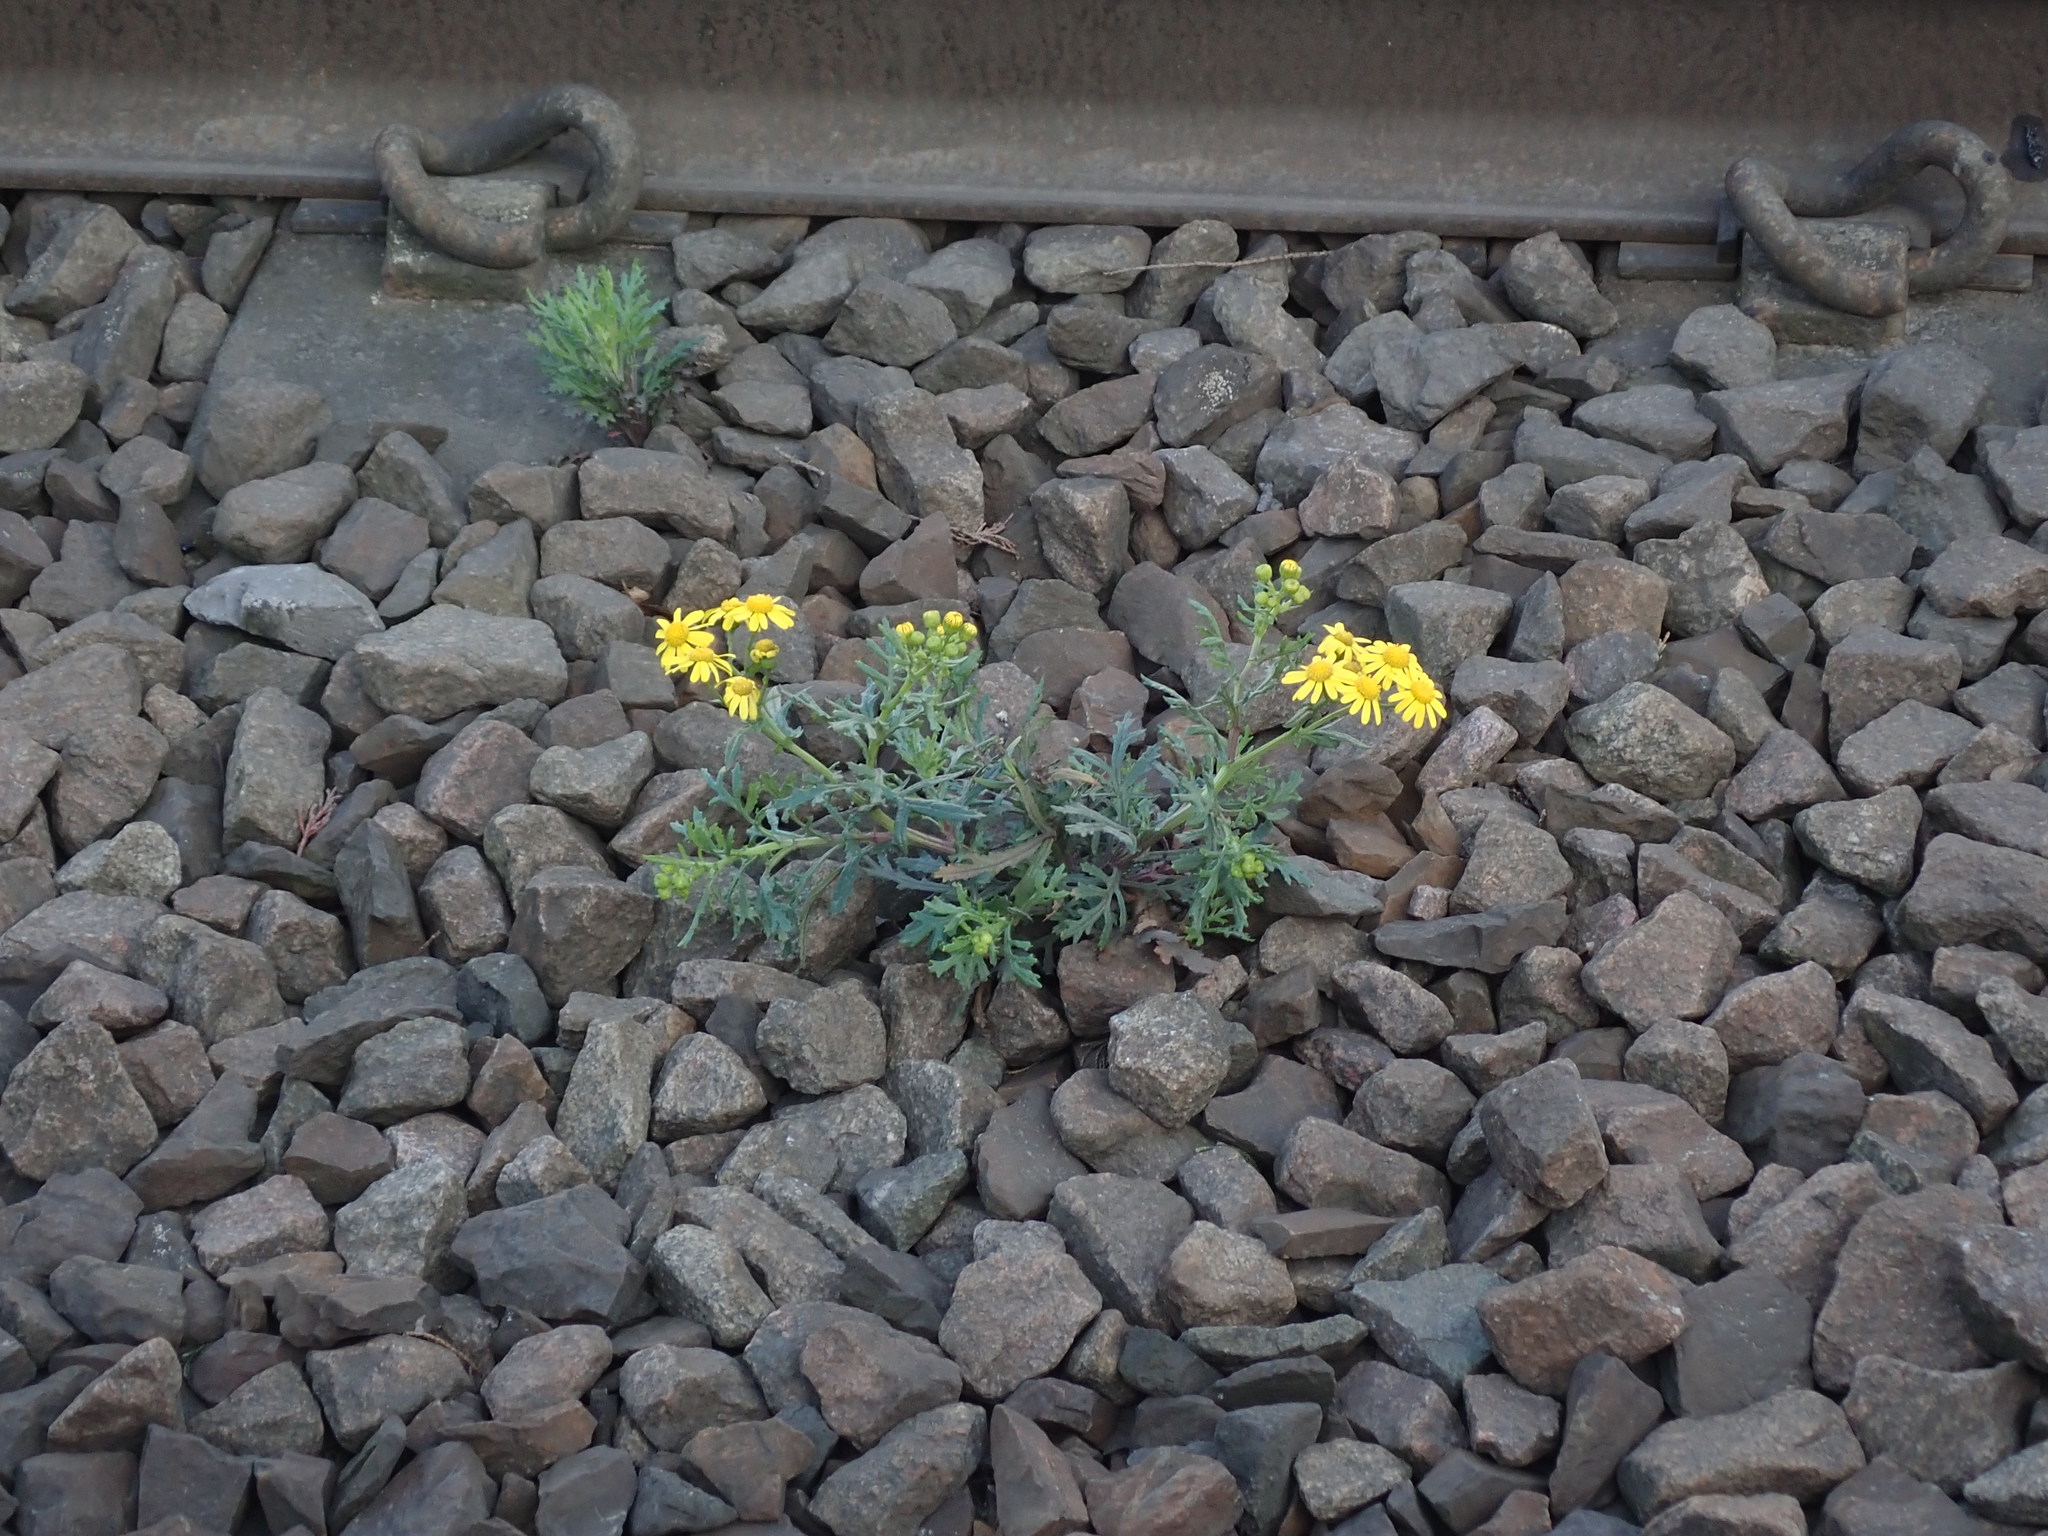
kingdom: Plantae
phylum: Tracheophyta
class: Magnoliopsida
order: Asterales
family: Asteraceae
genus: Senecio
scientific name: Senecio squalidus
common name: Oxford ragwort
